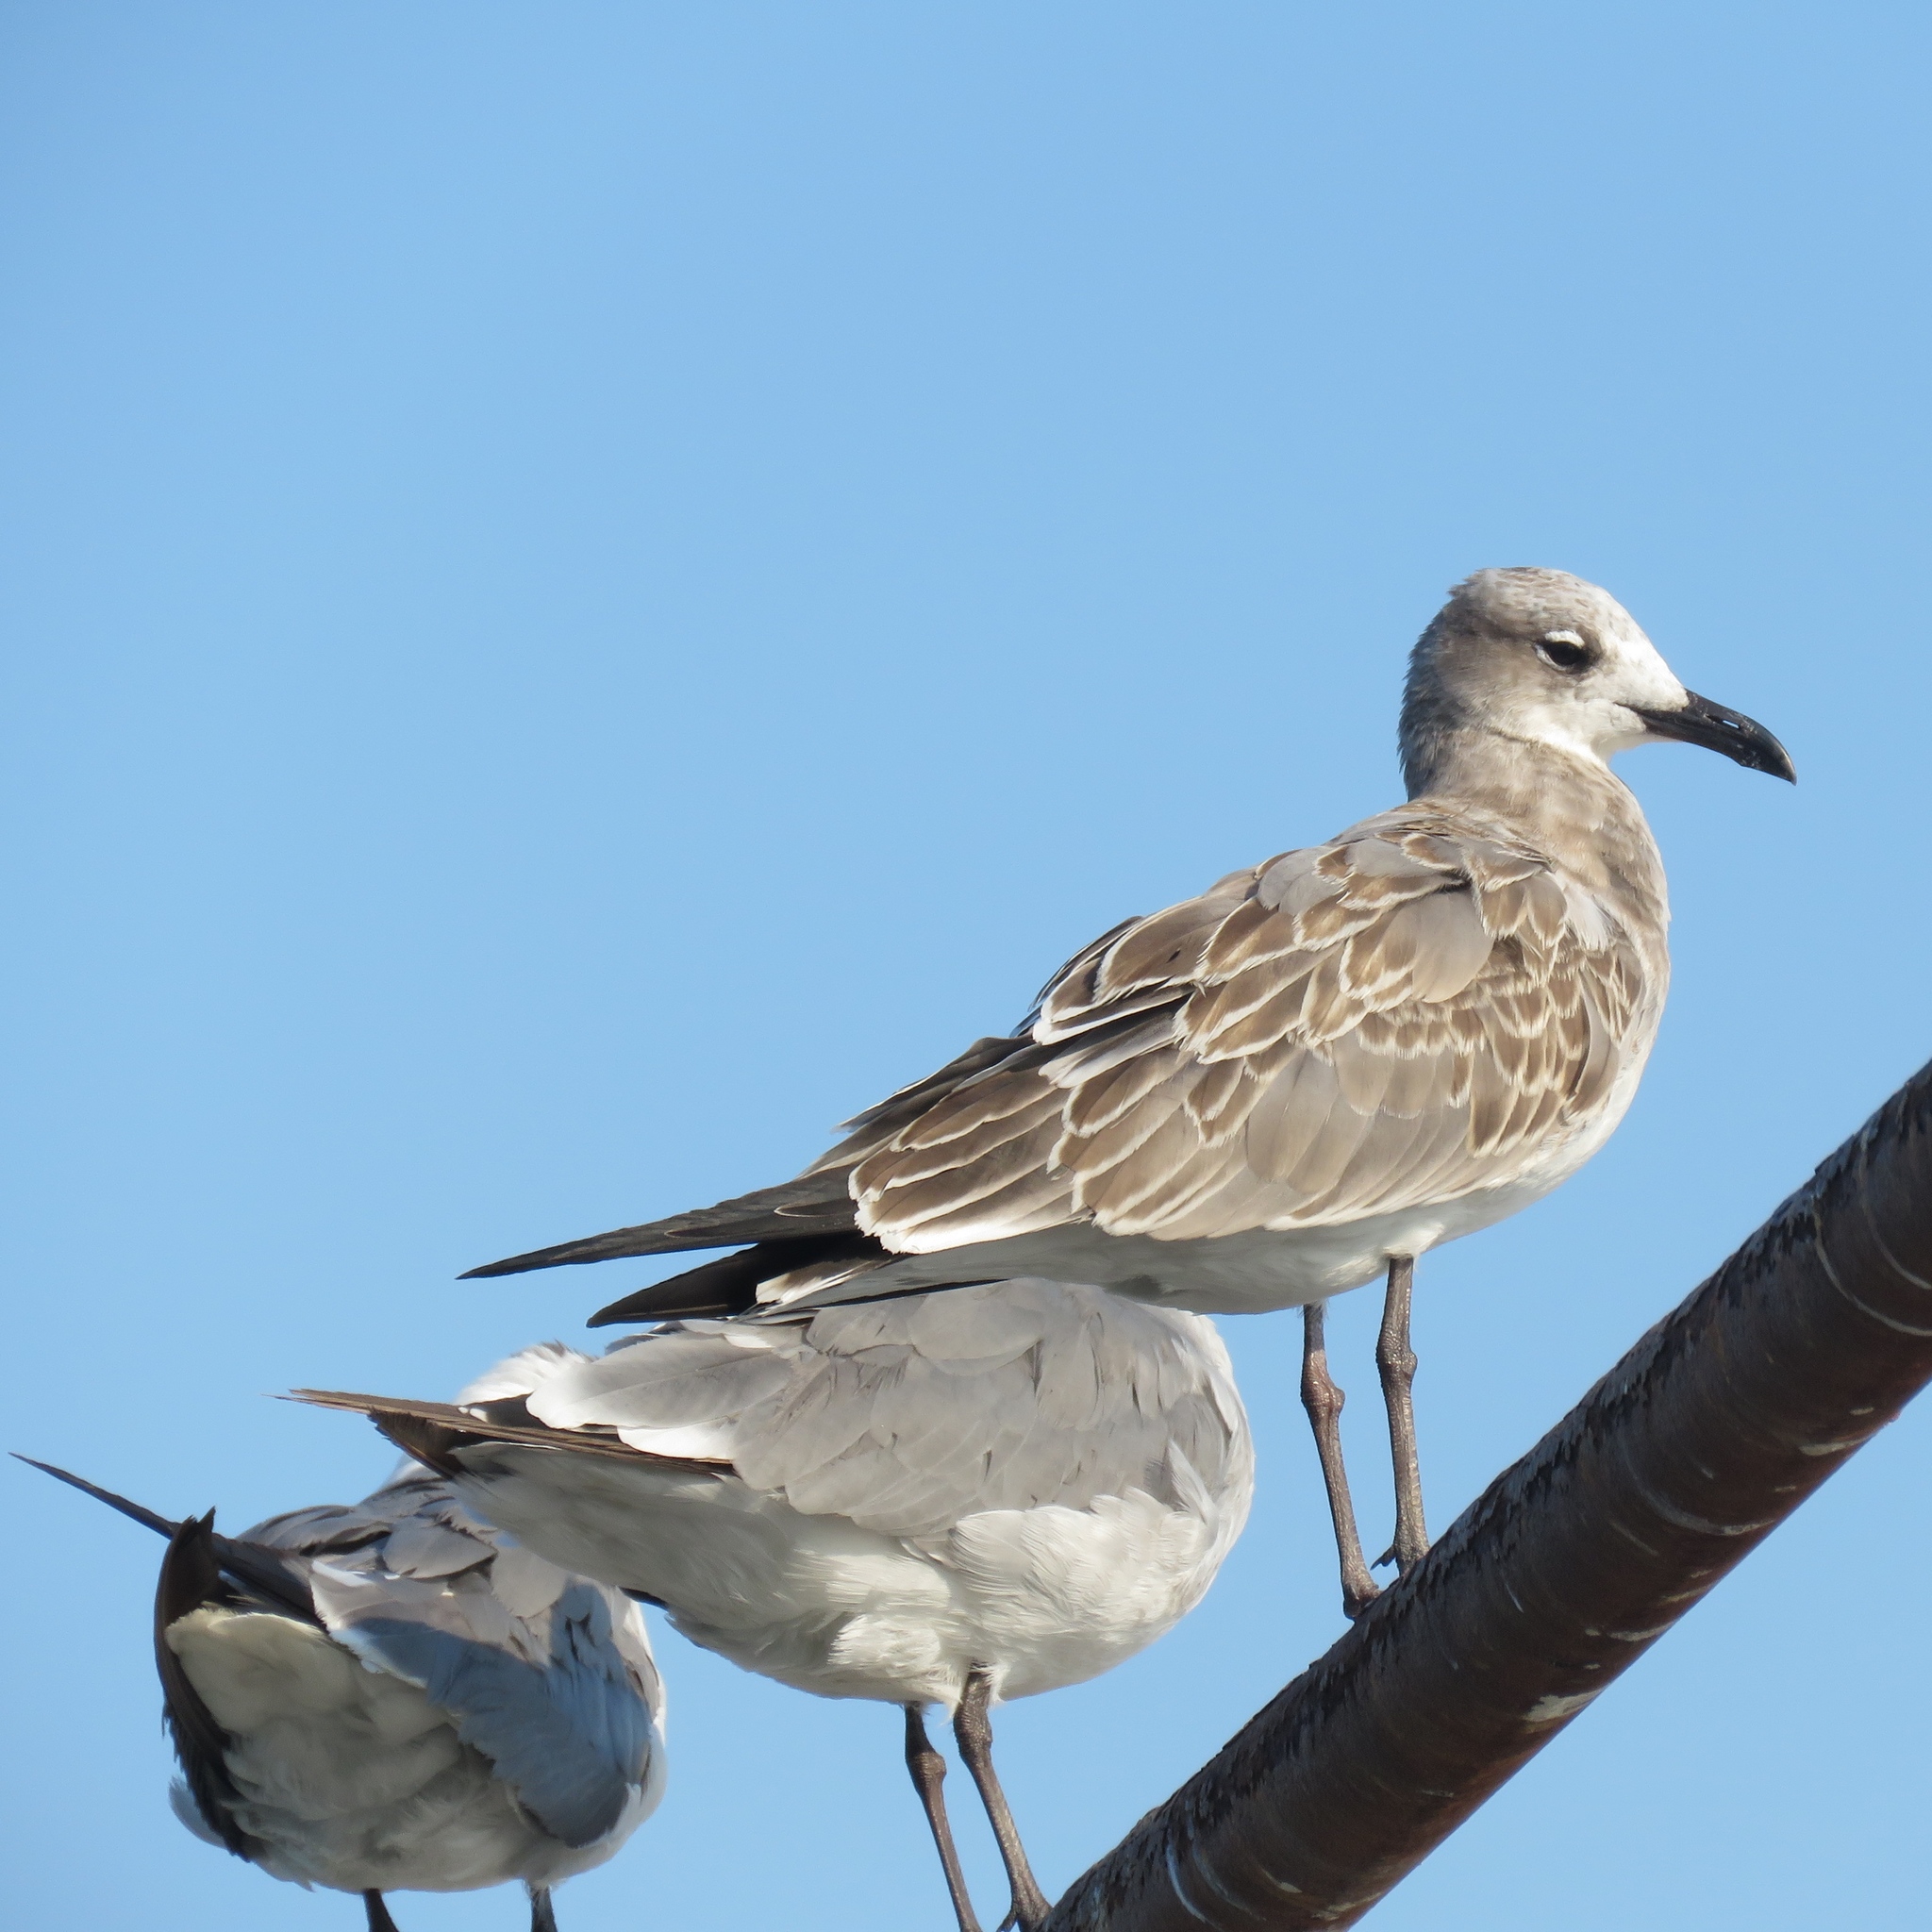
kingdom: Animalia
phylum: Chordata
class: Aves
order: Charadriiformes
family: Laridae
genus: Leucophaeus
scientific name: Leucophaeus atricilla
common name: Laughing gull
